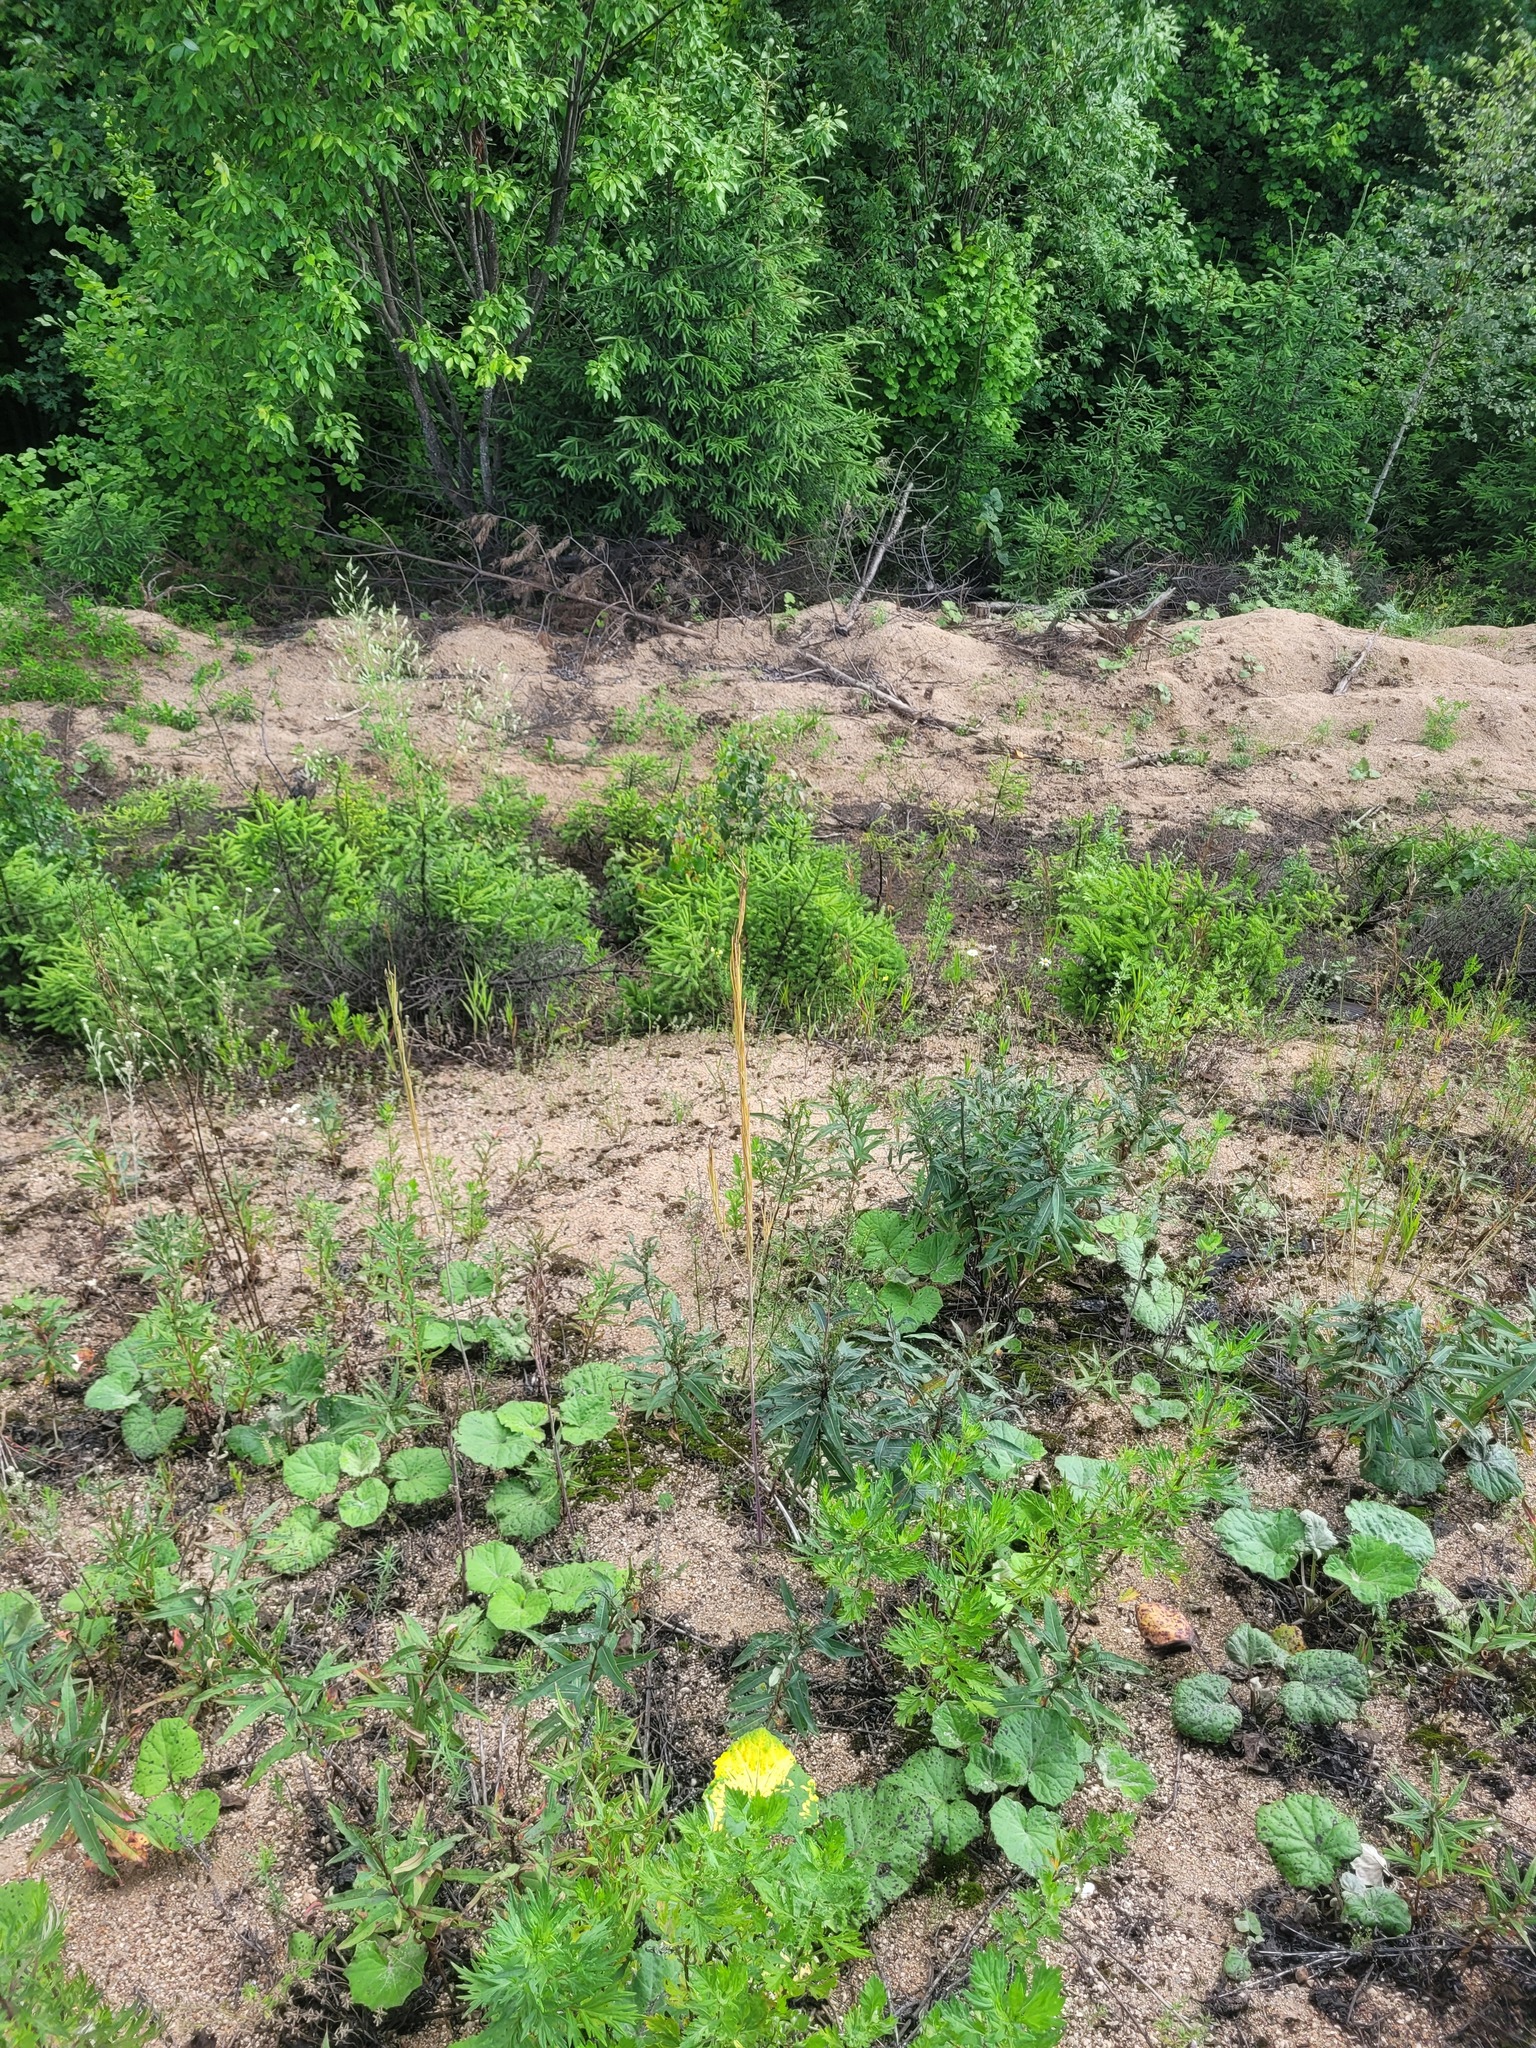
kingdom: Plantae
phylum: Tracheophyta
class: Magnoliopsida
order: Brassicales
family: Brassicaceae
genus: Turritis
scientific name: Turritis glabra
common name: Tower rockcress
